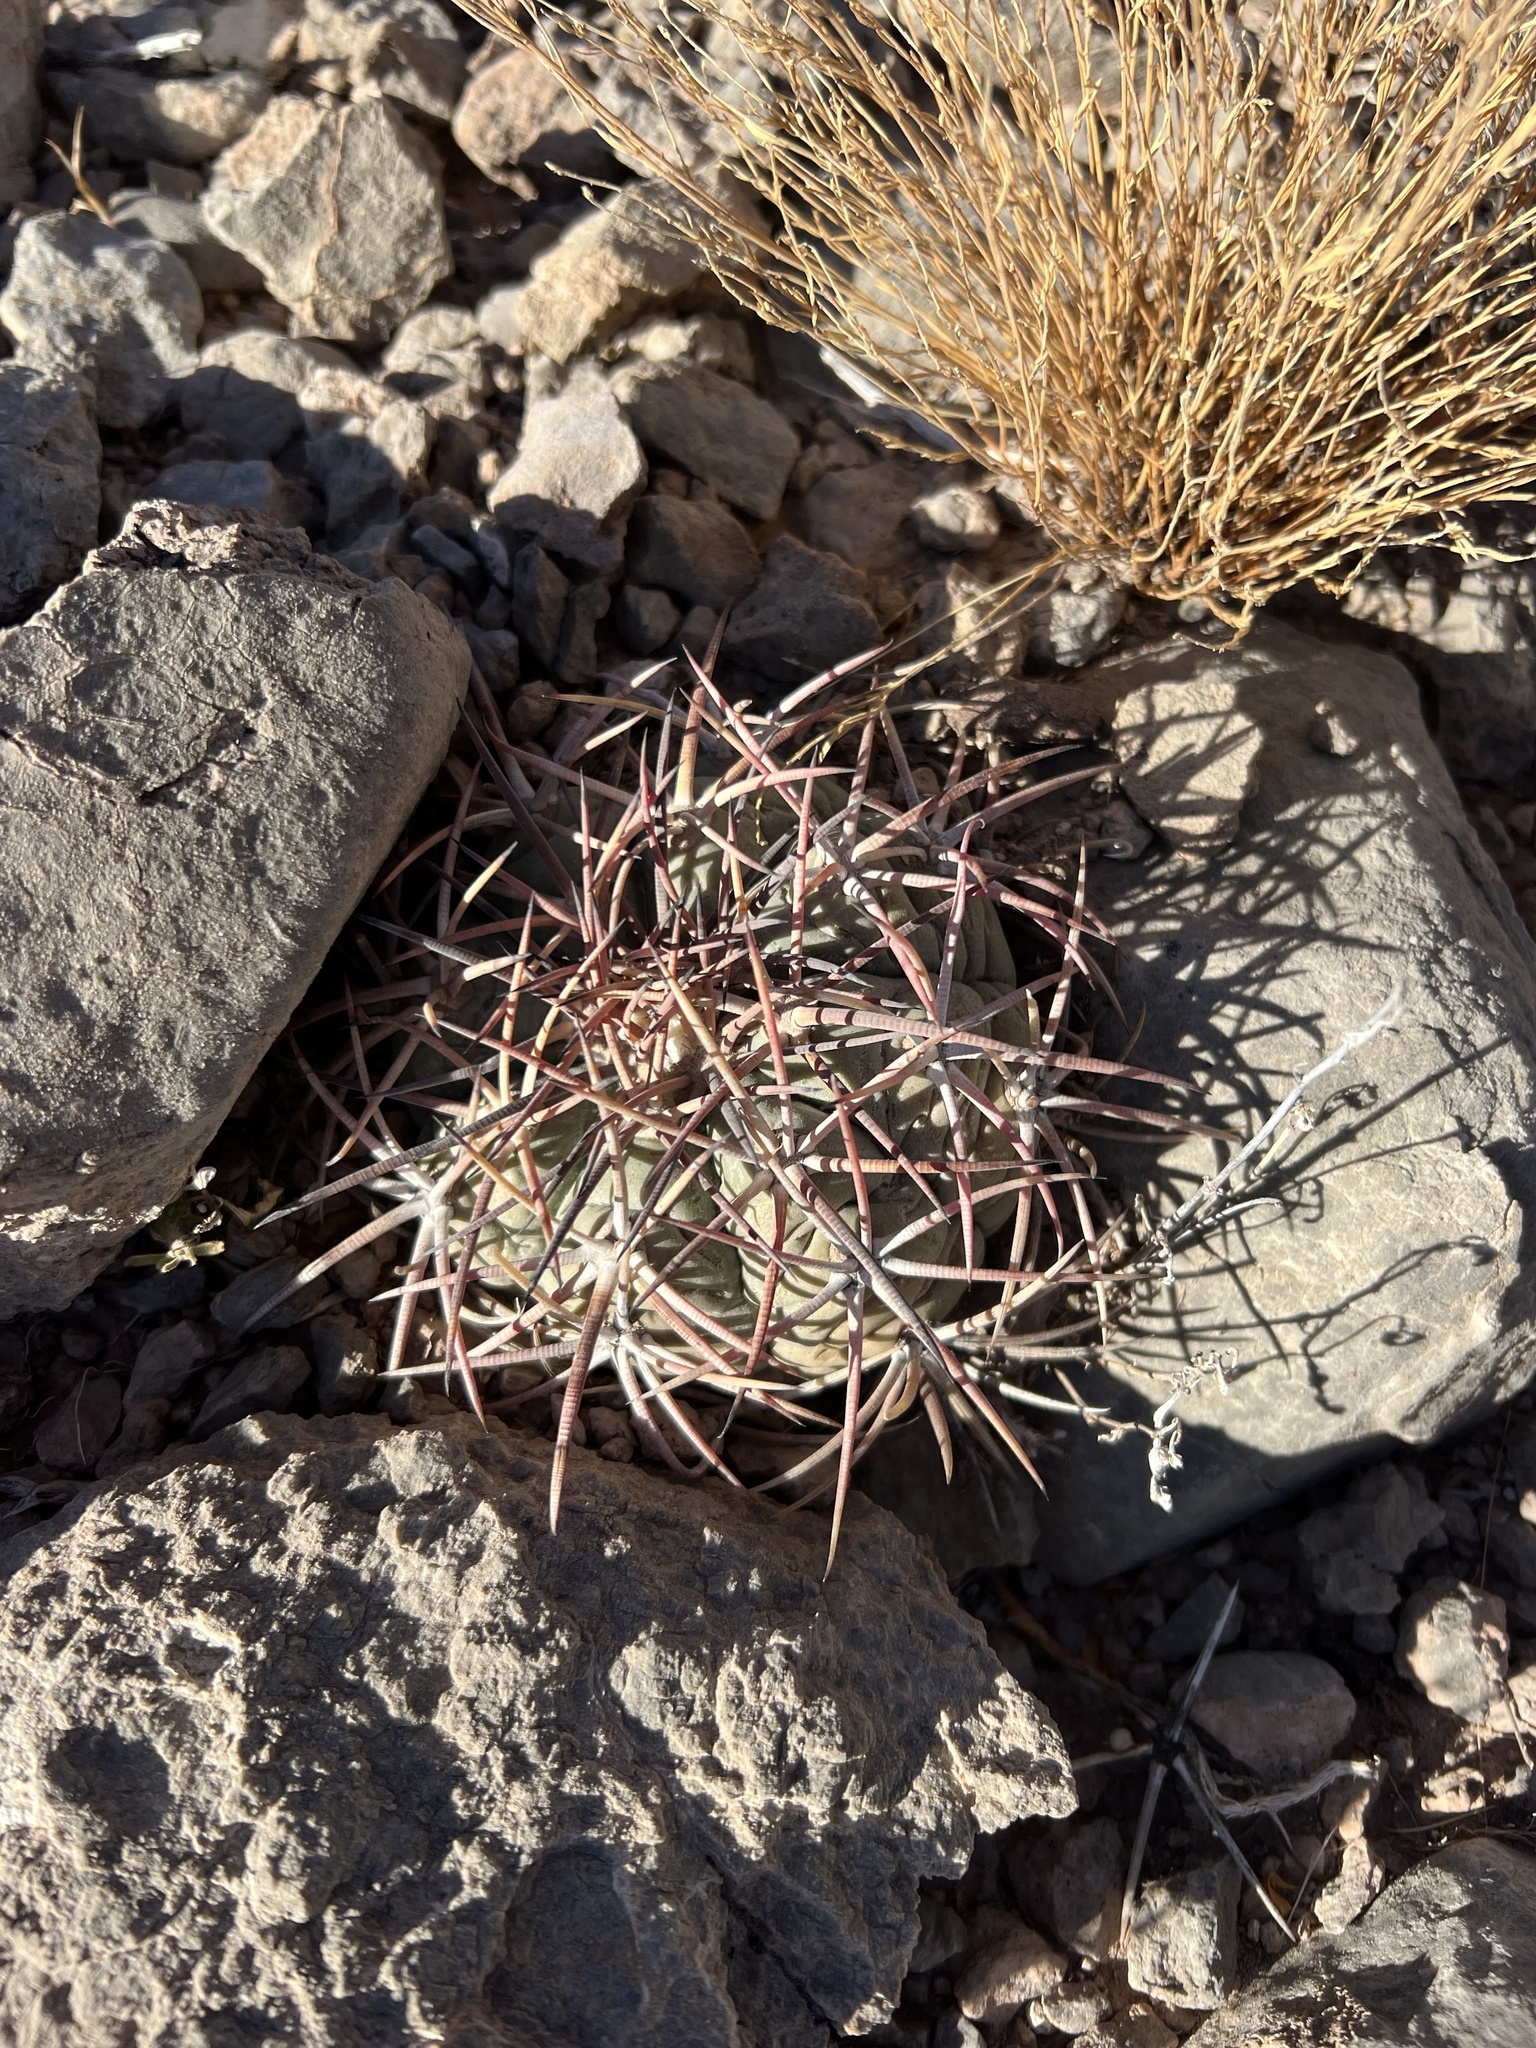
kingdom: Plantae
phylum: Tracheophyta
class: Magnoliopsida
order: Caryophyllales
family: Cactaceae
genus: Echinocactus
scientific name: Echinocactus horizonthalonius
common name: Devilshead
